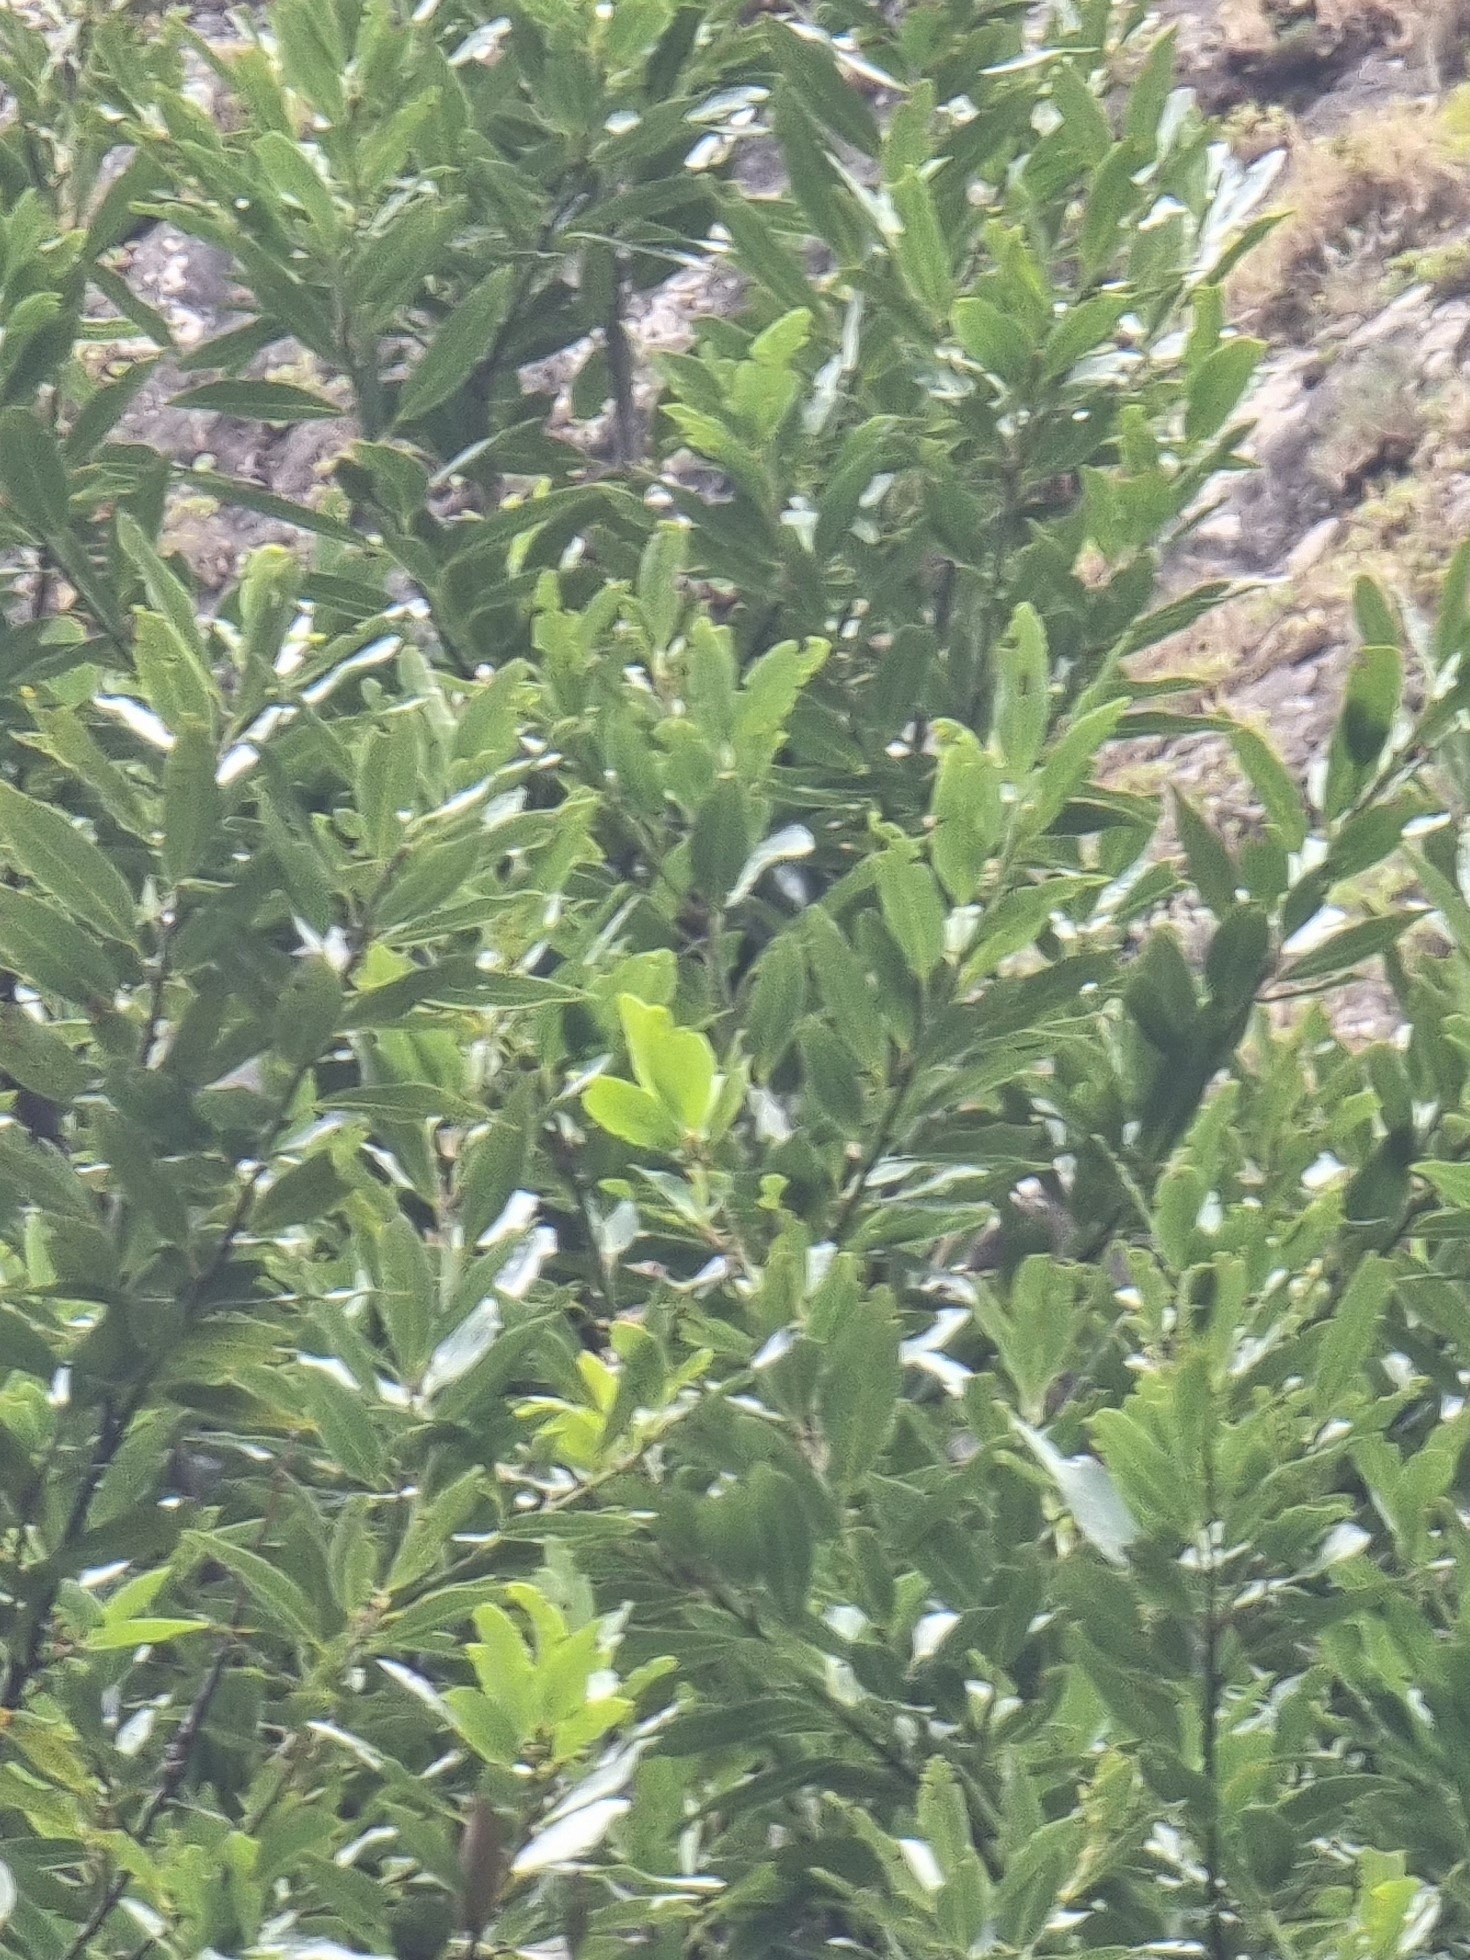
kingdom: Plantae
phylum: Tracheophyta
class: Magnoliopsida
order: Laurales
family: Lauraceae
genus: Laurus
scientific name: Laurus novocanariensis
